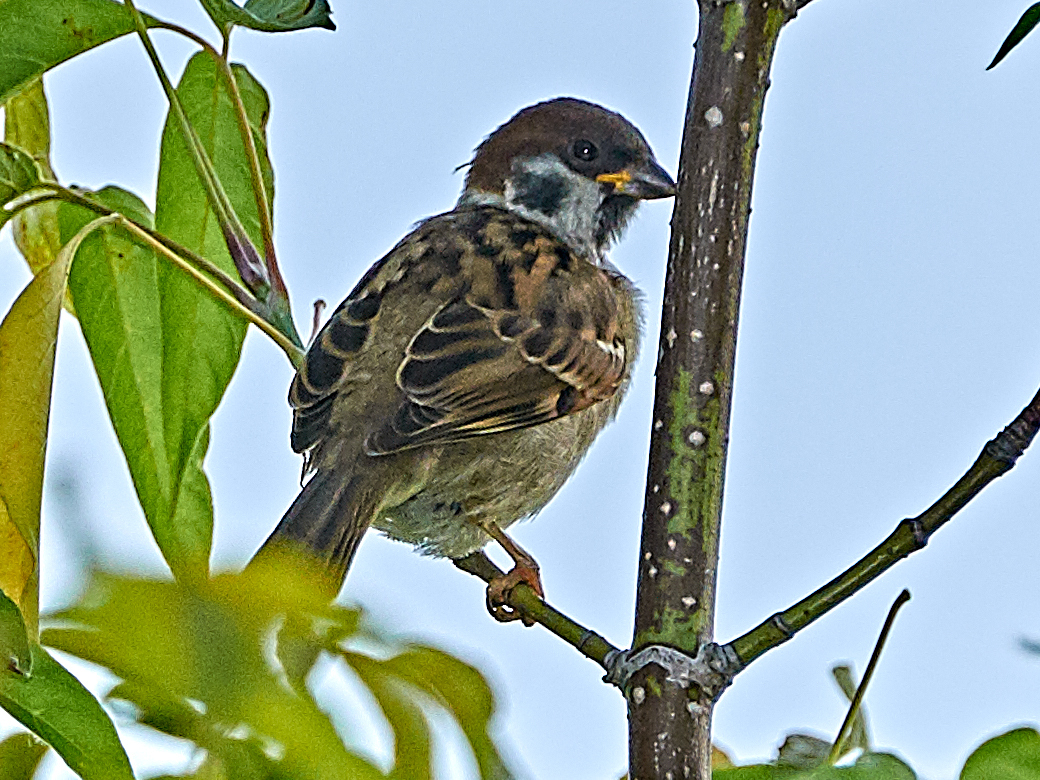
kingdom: Animalia
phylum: Chordata
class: Aves
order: Passeriformes
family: Passeridae
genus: Passer
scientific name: Passer montanus
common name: Eurasian tree sparrow
